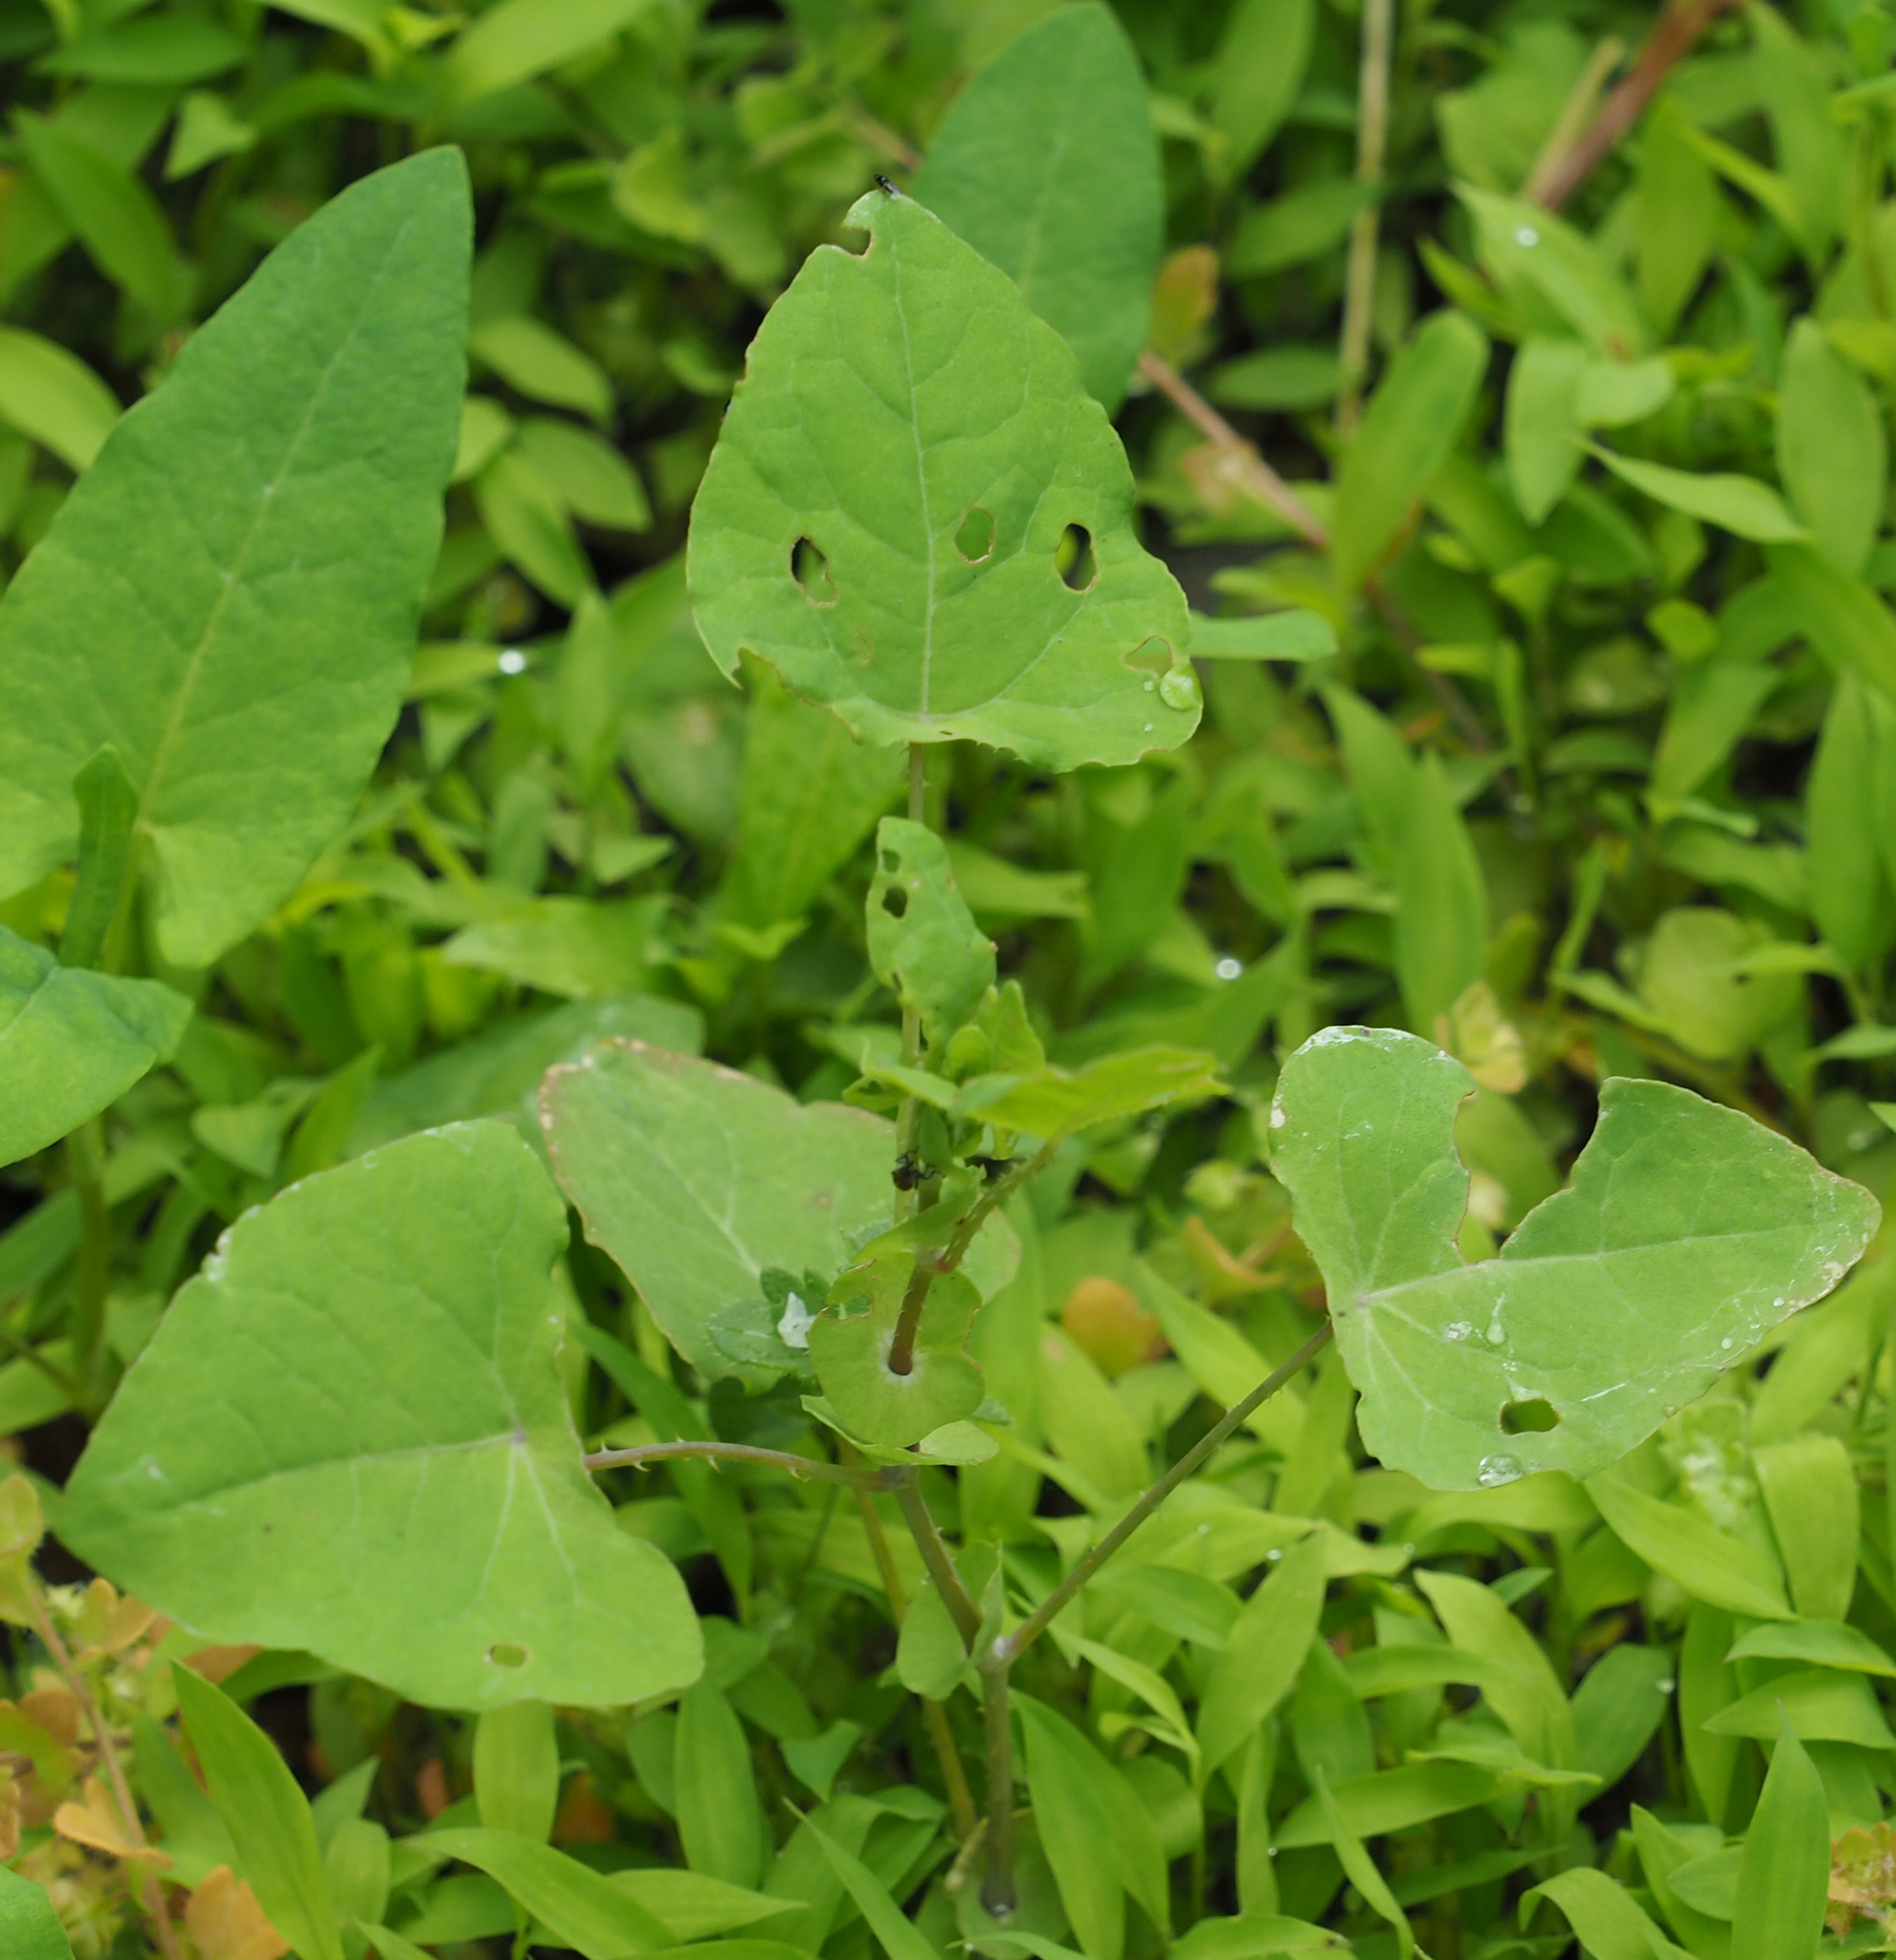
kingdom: Plantae
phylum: Tracheophyta
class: Magnoliopsida
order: Caryophyllales
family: Polygonaceae
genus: Persicaria
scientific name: Persicaria perfoliata
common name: Asiatic tearthumb
